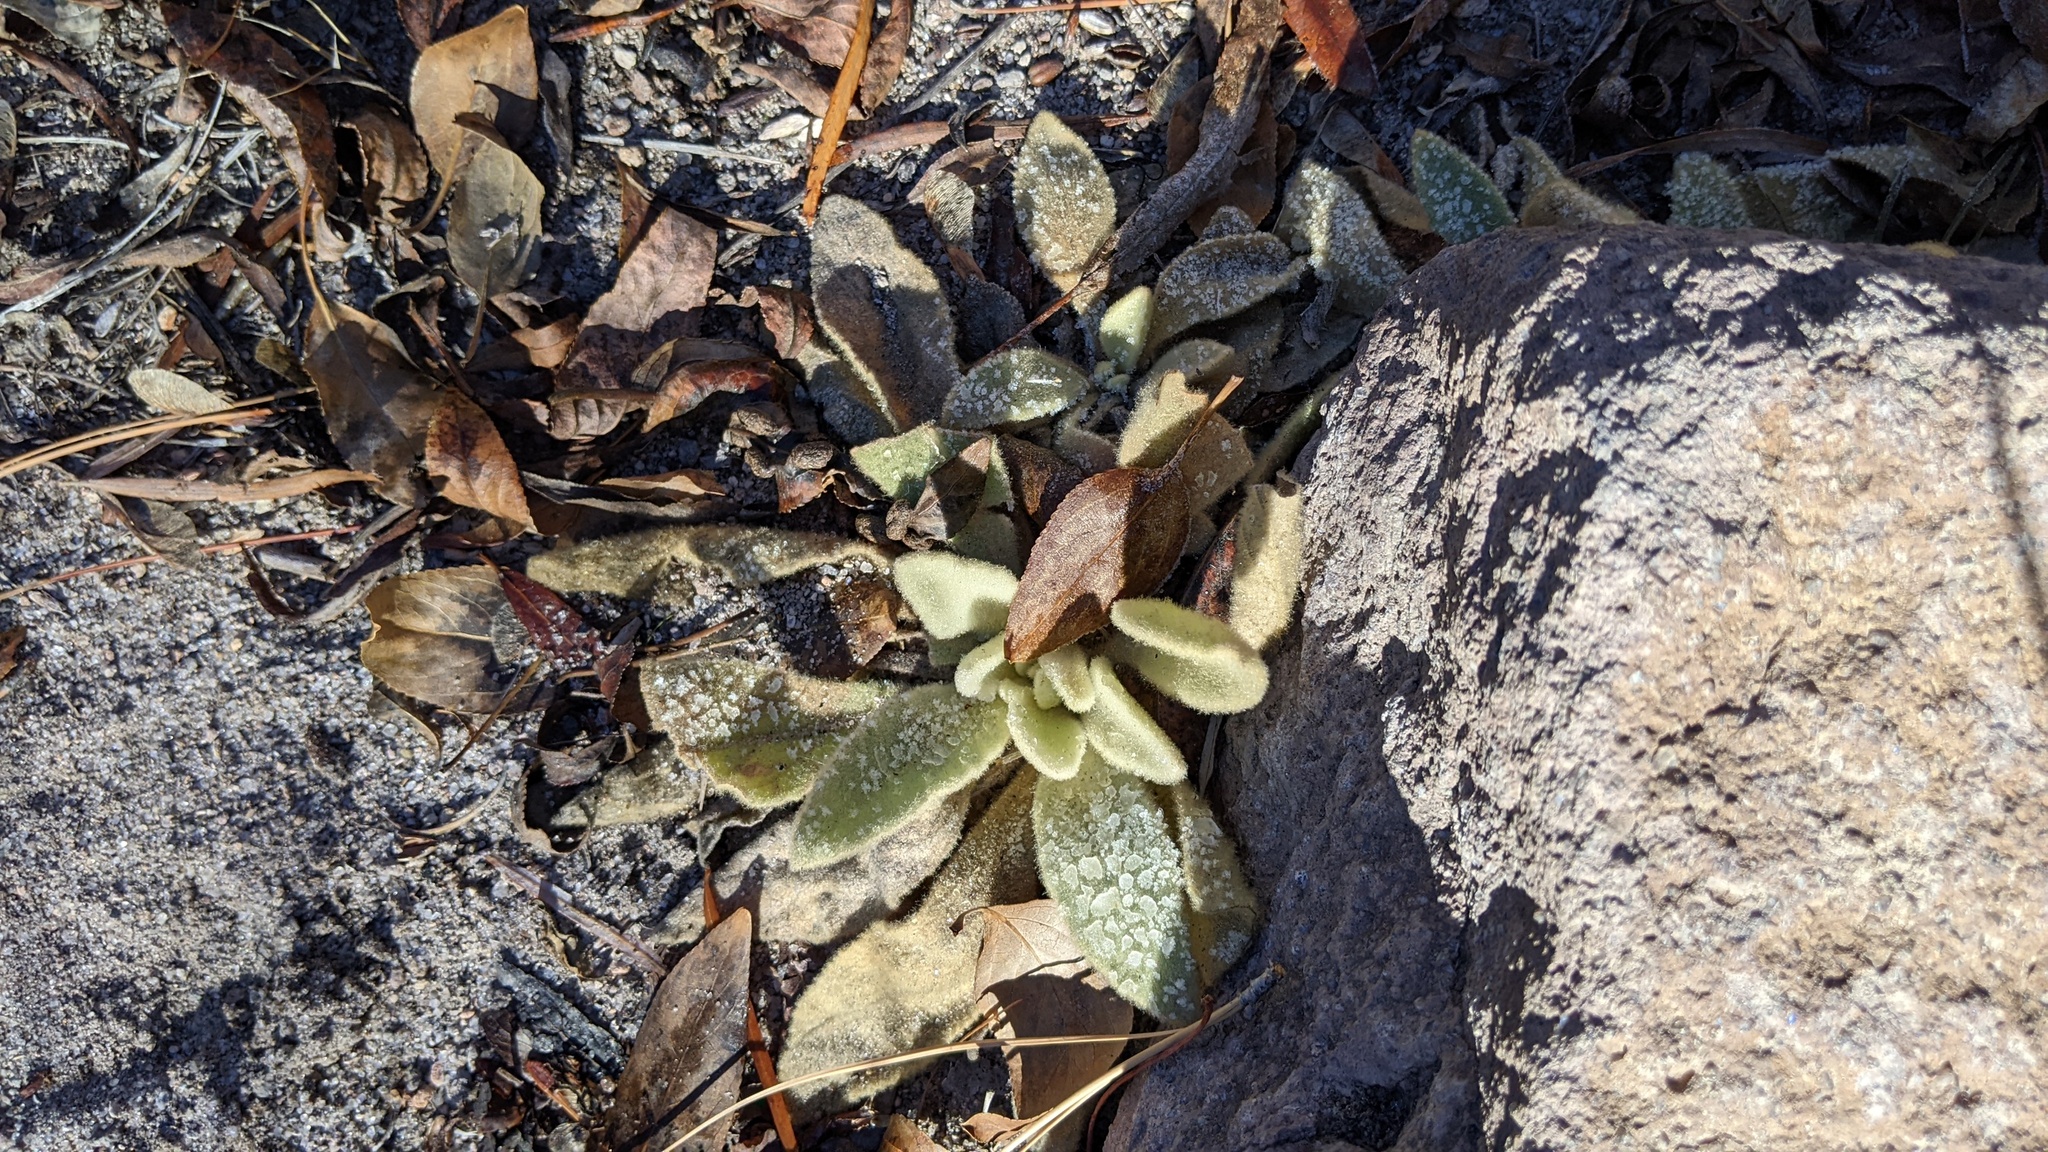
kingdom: Plantae
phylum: Tracheophyta
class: Magnoliopsida
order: Lamiales
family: Scrophulariaceae
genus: Verbascum
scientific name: Verbascum thapsus
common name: Common mullein
